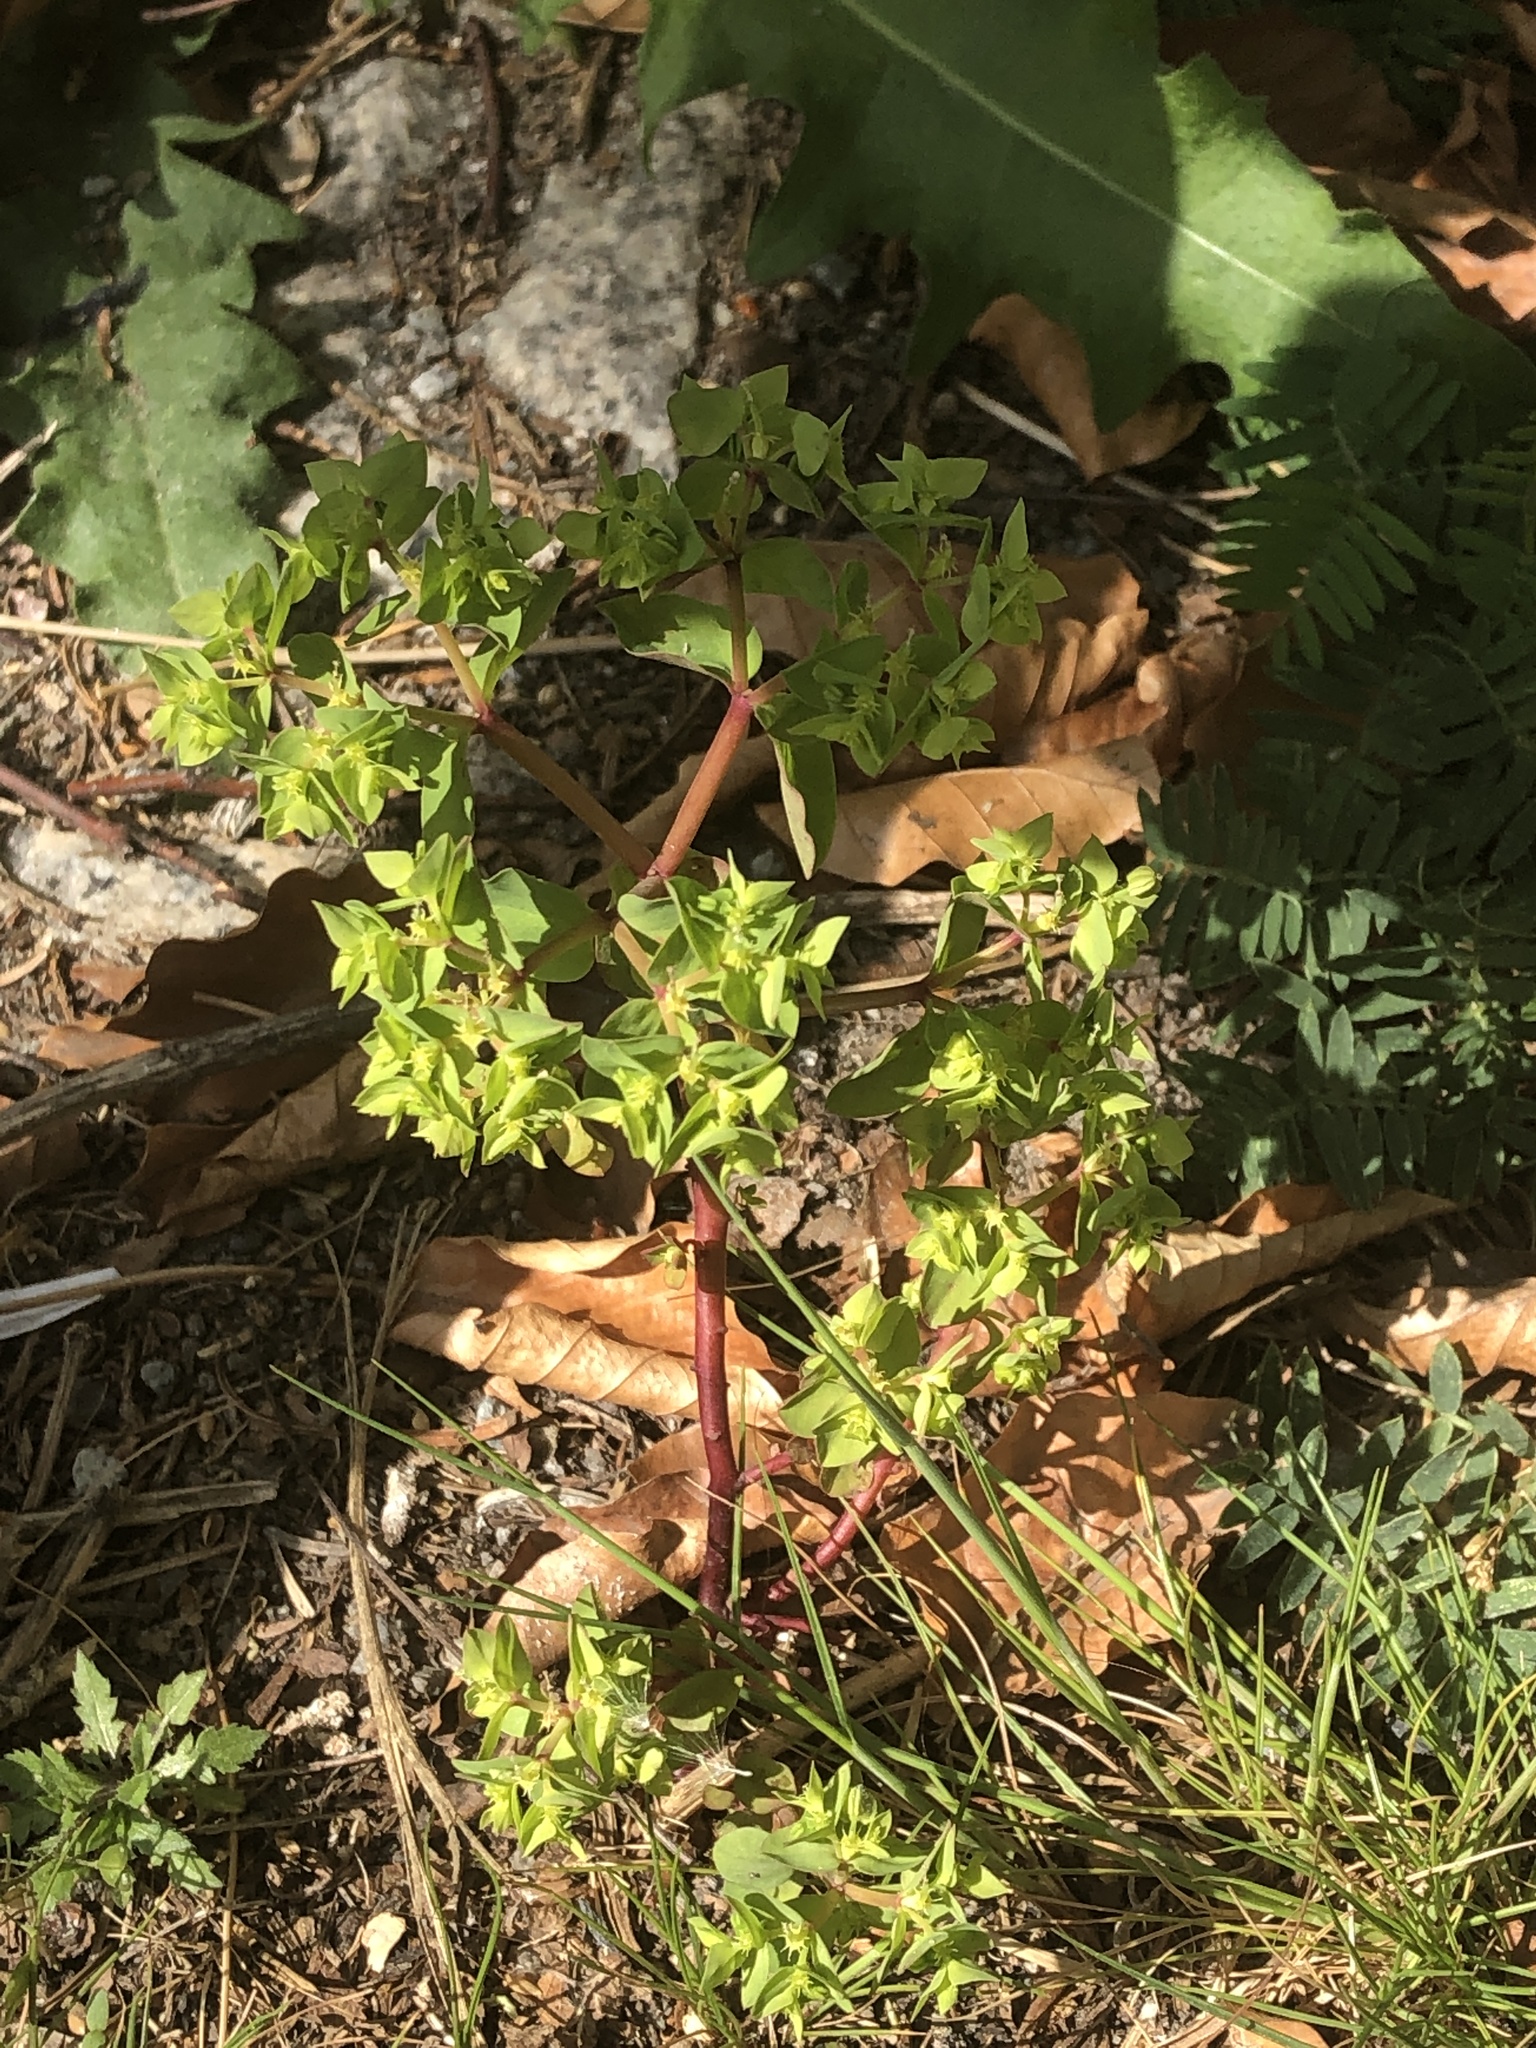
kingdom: Plantae
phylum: Tracheophyta
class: Magnoliopsida
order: Malpighiales
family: Euphorbiaceae
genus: Euphorbia
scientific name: Euphorbia peplus
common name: Petty spurge
